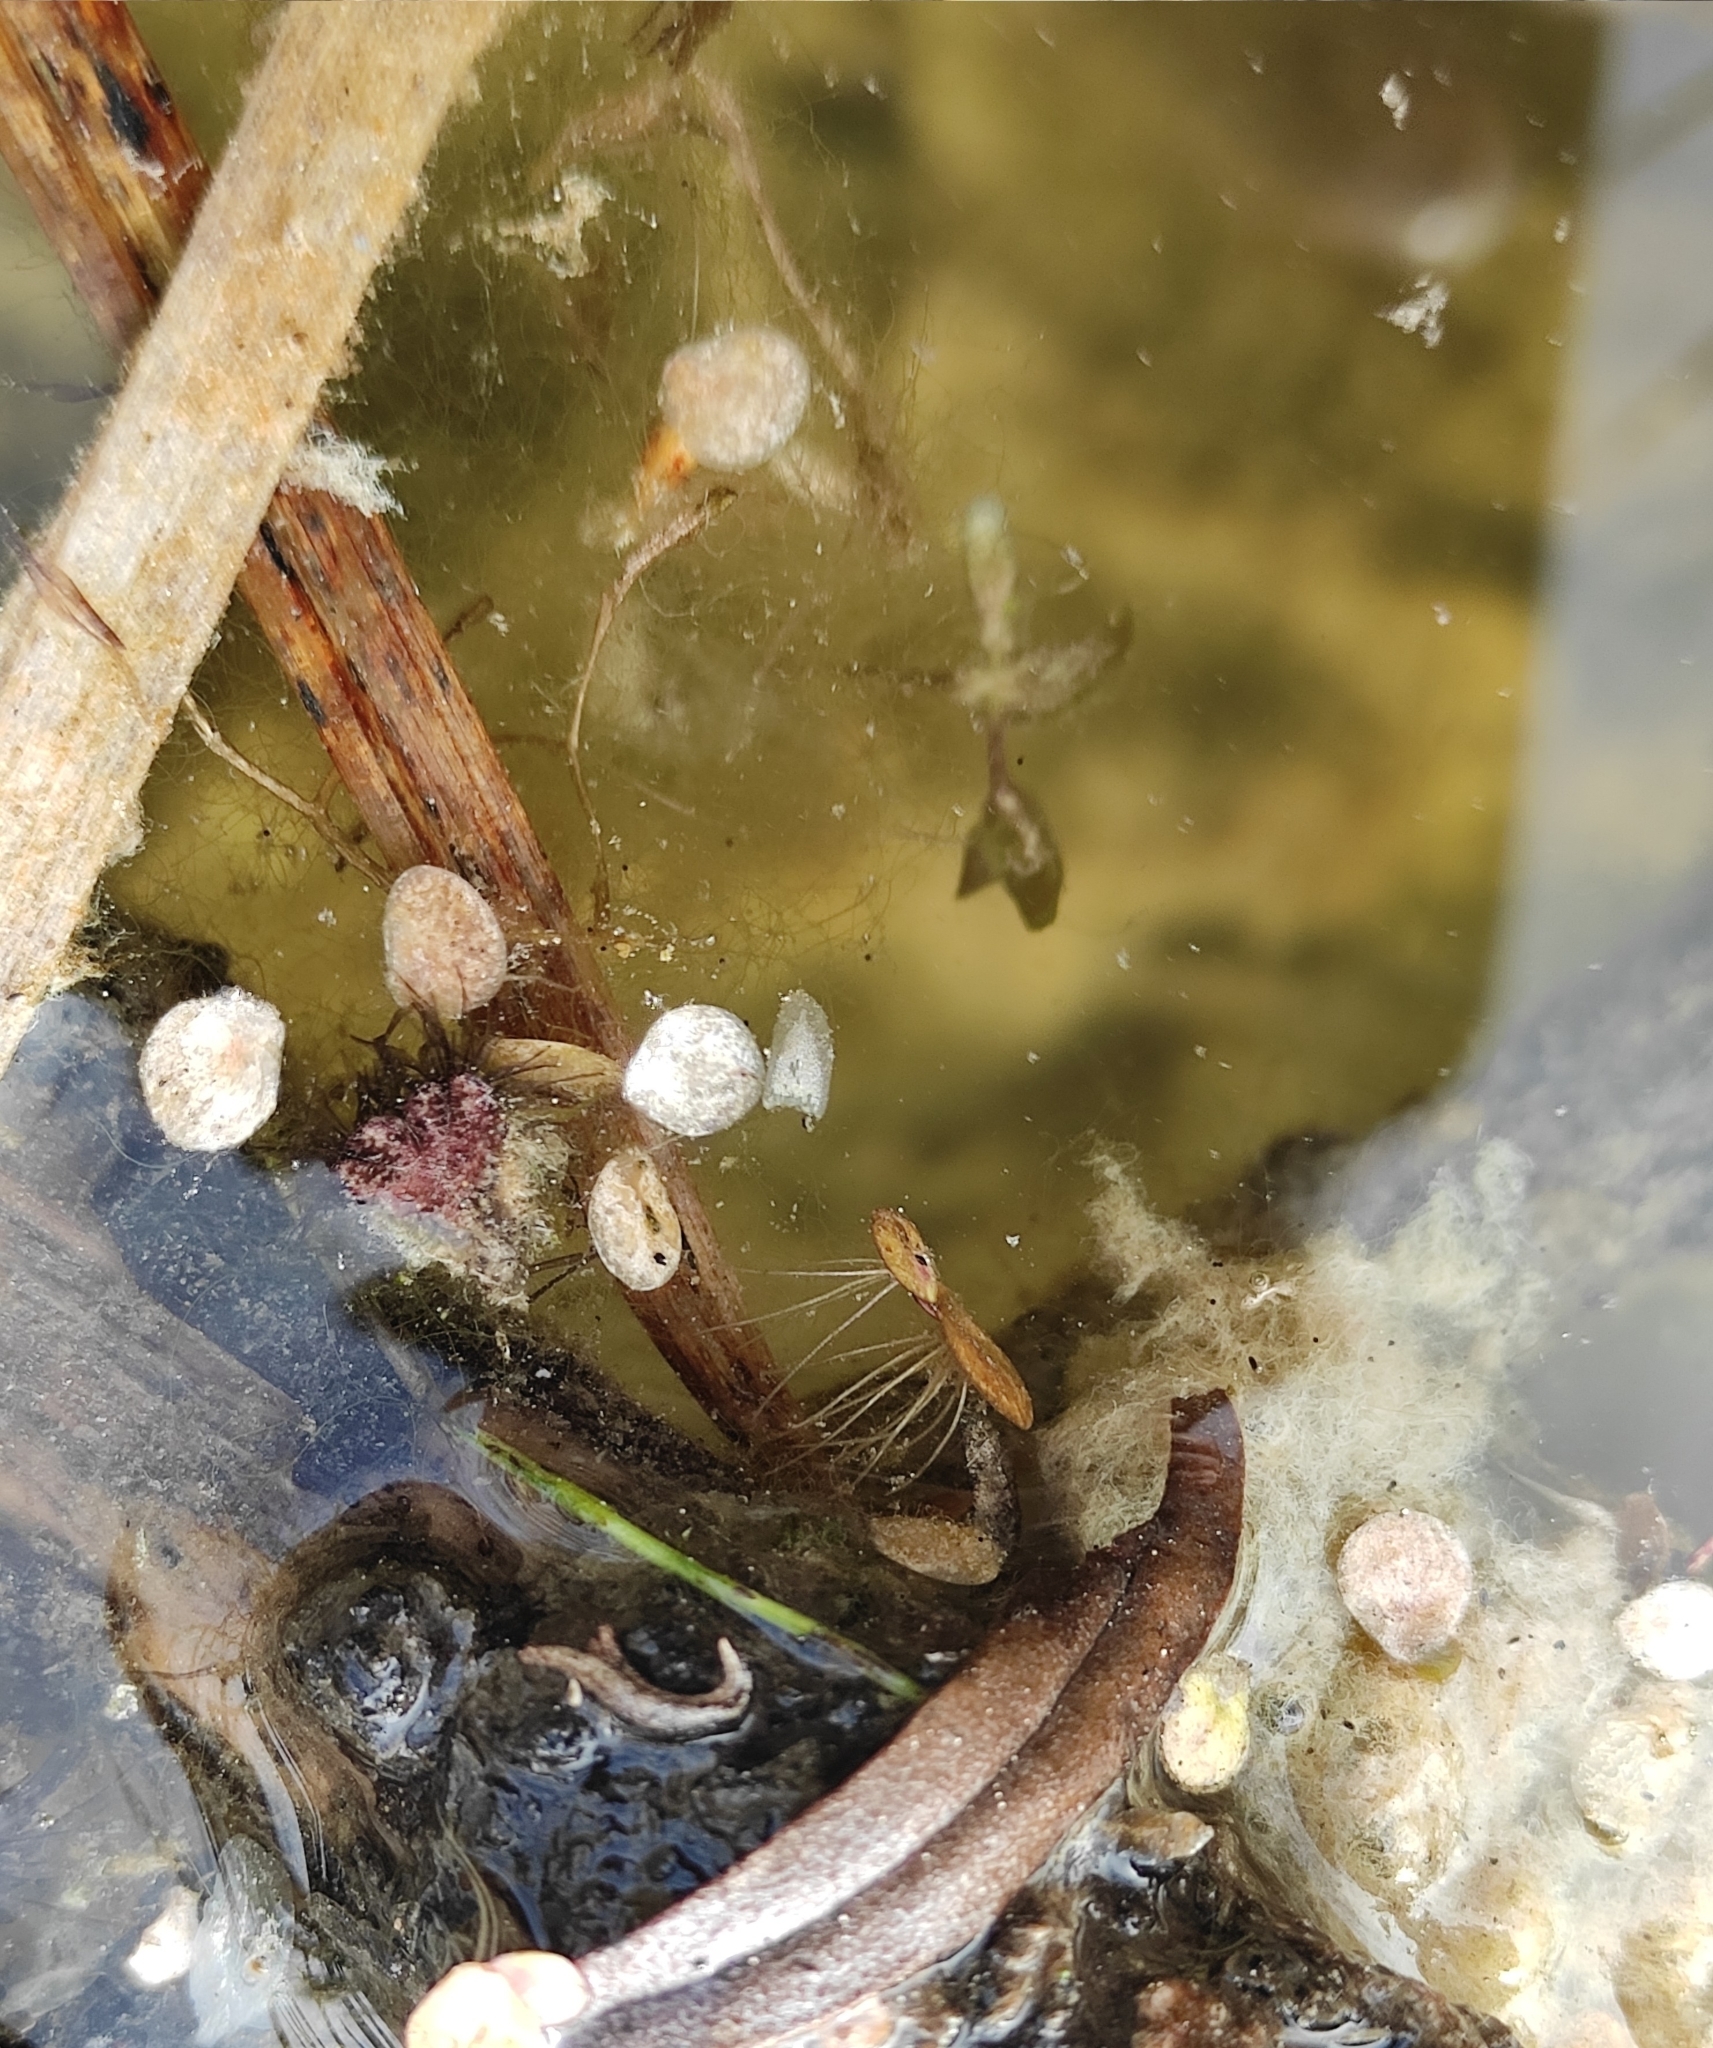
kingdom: Plantae
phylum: Tracheophyta
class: Liliopsida
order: Alismatales
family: Araceae
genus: Spirodela
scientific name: Spirodela polyrhiza
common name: Great duckweed
